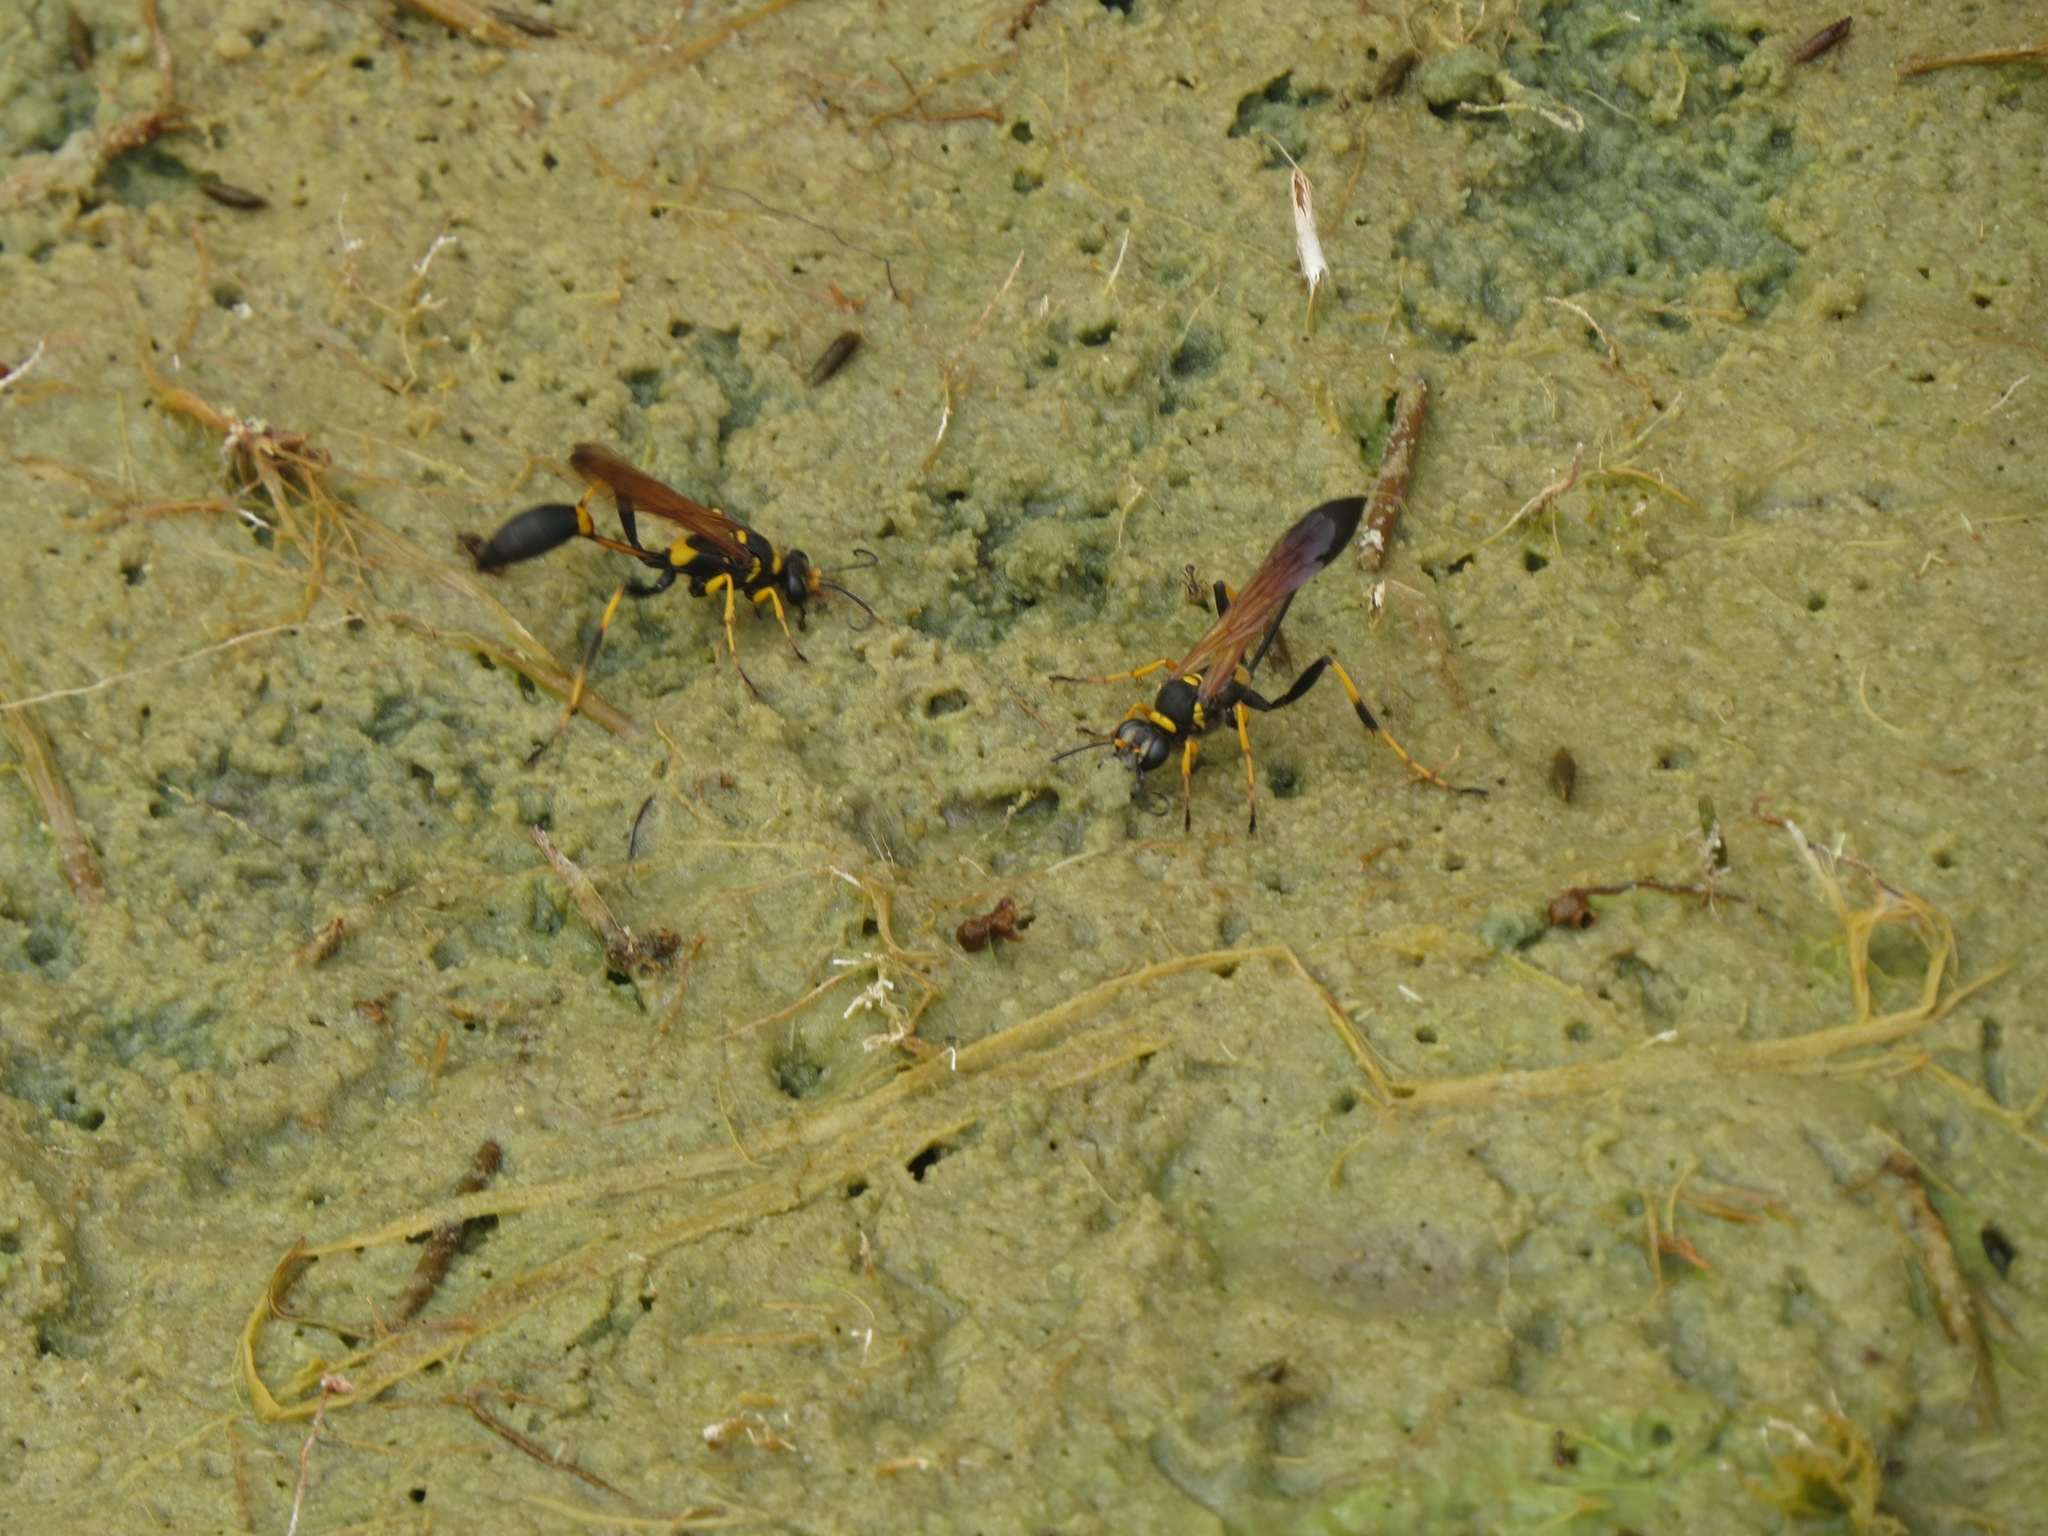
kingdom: Animalia
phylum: Arthropoda
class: Insecta
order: Hymenoptera
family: Sphecidae
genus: Sceliphron
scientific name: Sceliphron caementarium
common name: Mud dauber
